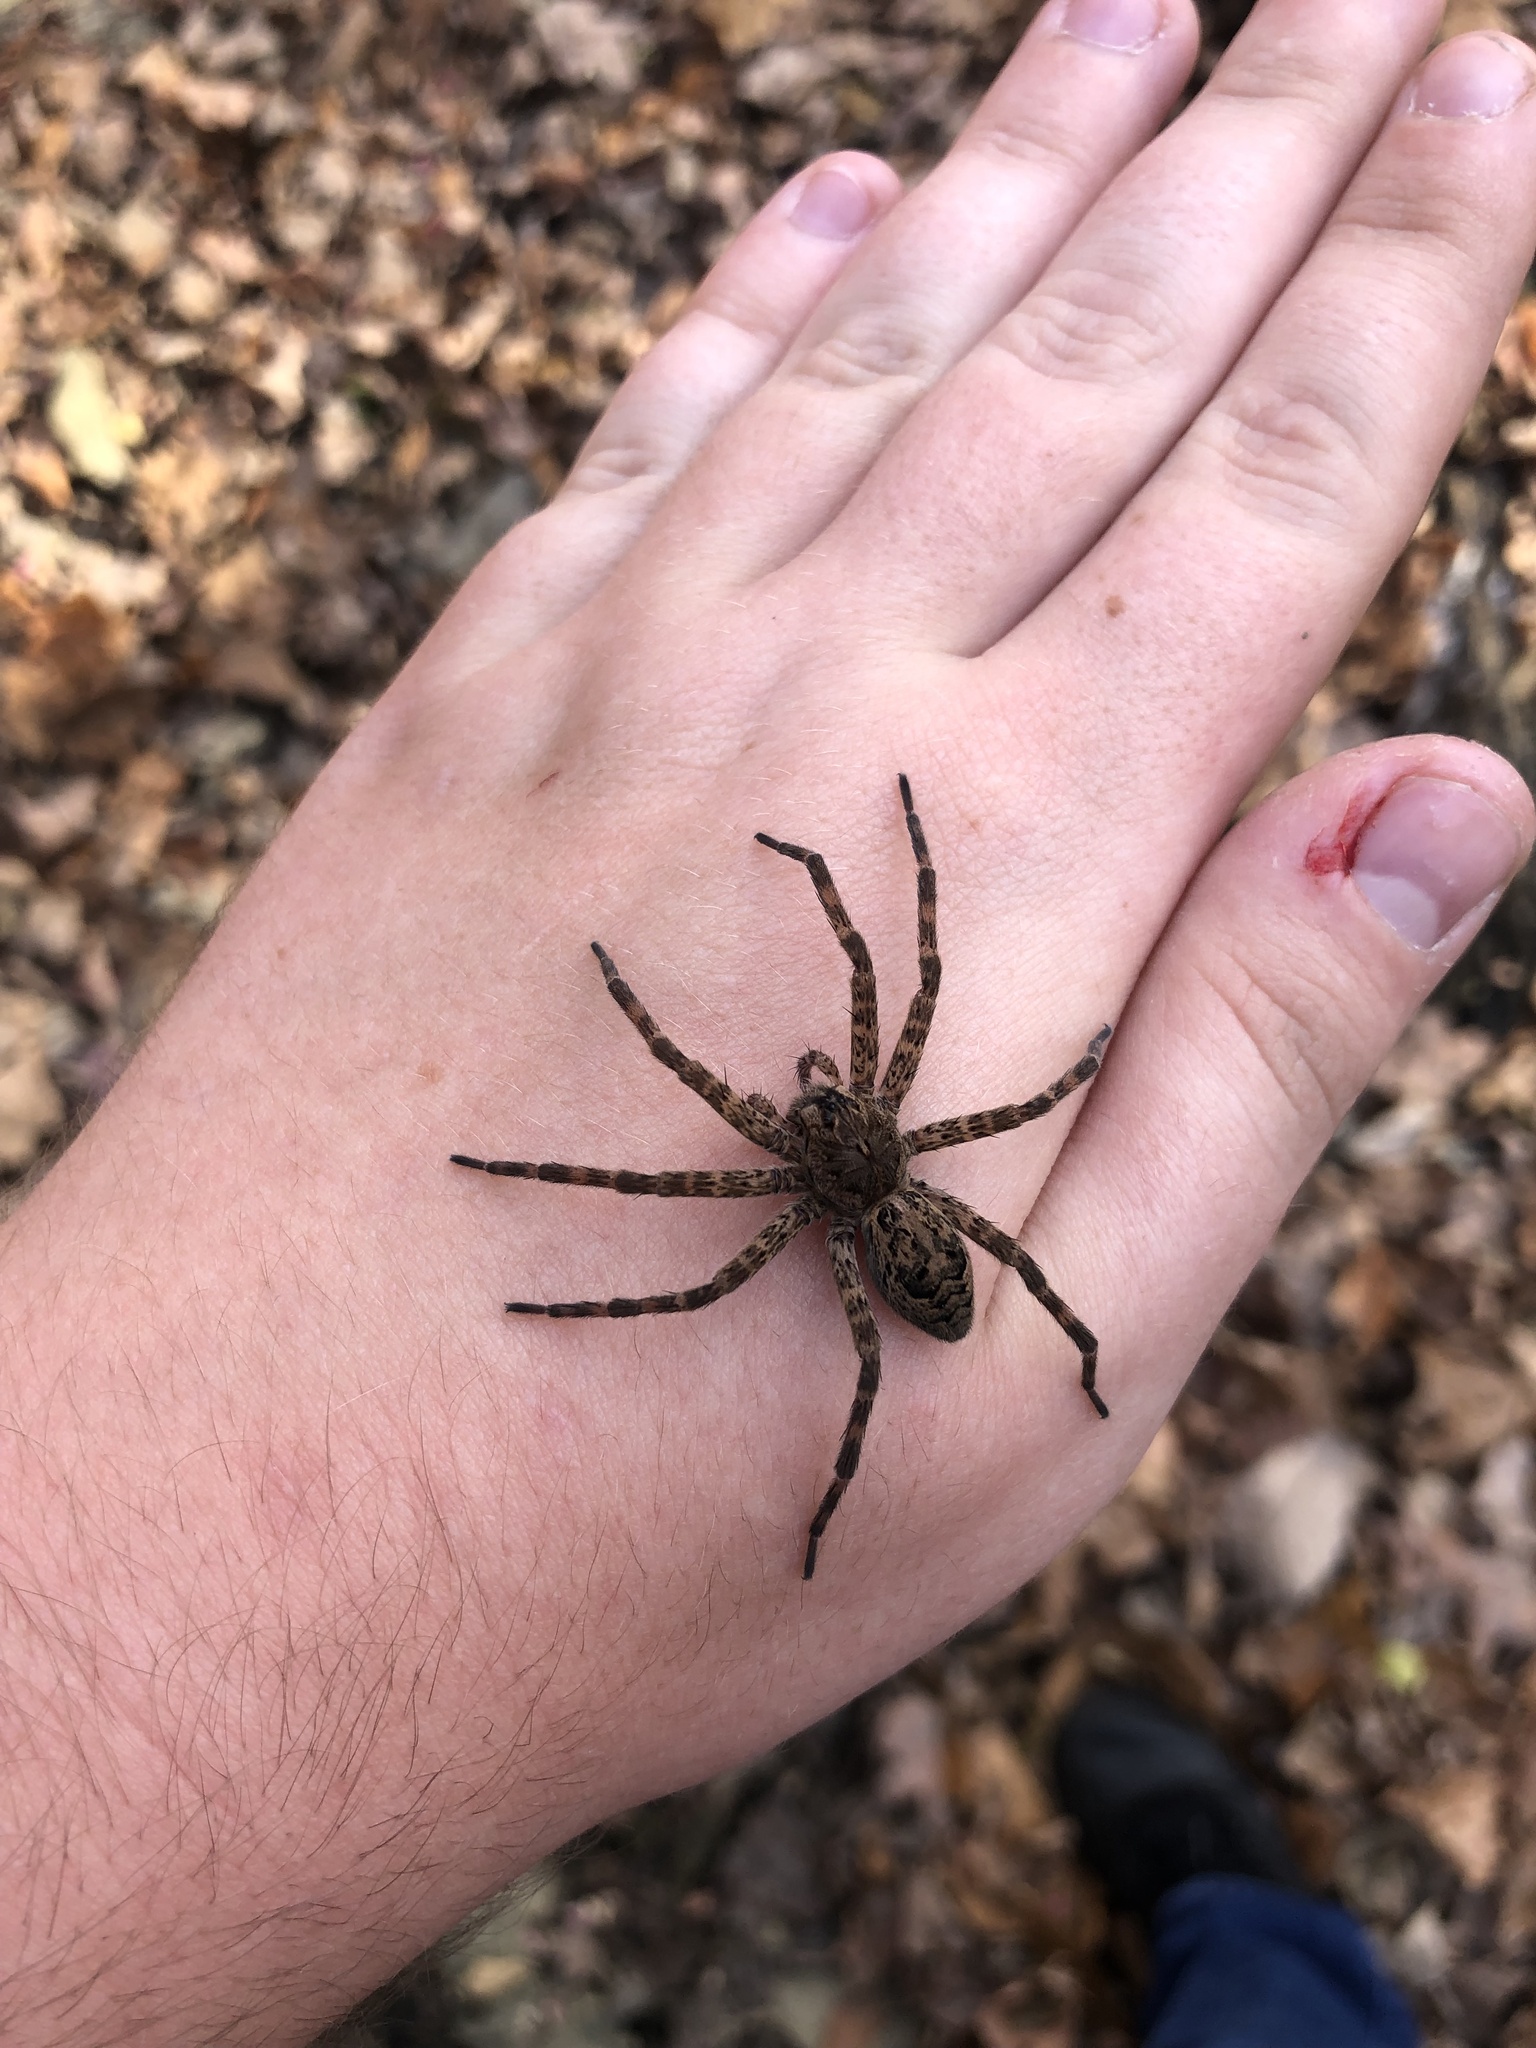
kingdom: Animalia
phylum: Arthropoda
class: Arachnida
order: Araneae
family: Pisauridae
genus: Dolomedes
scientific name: Dolomedes tenebrosus
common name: Dark fishing spider
